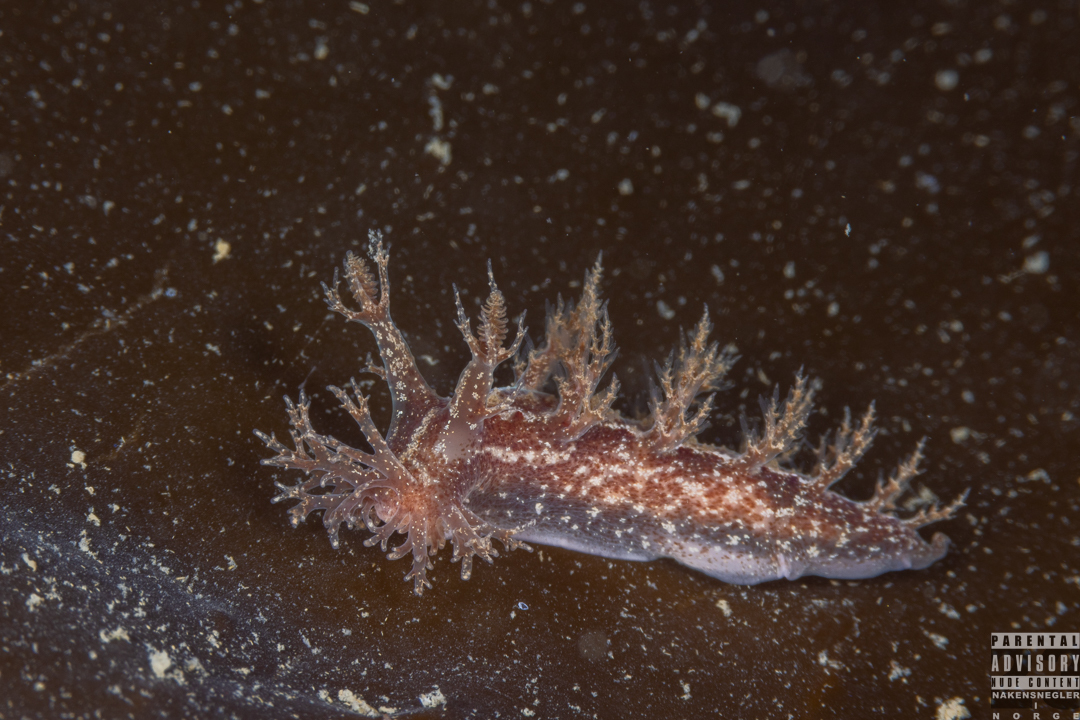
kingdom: Animalia
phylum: Mollusca
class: Gastropoda
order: Nudibranchia
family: Dendronotidae
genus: Dendronotus
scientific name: Dendronotus frondosus
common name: Bushy-backed nudibranch
